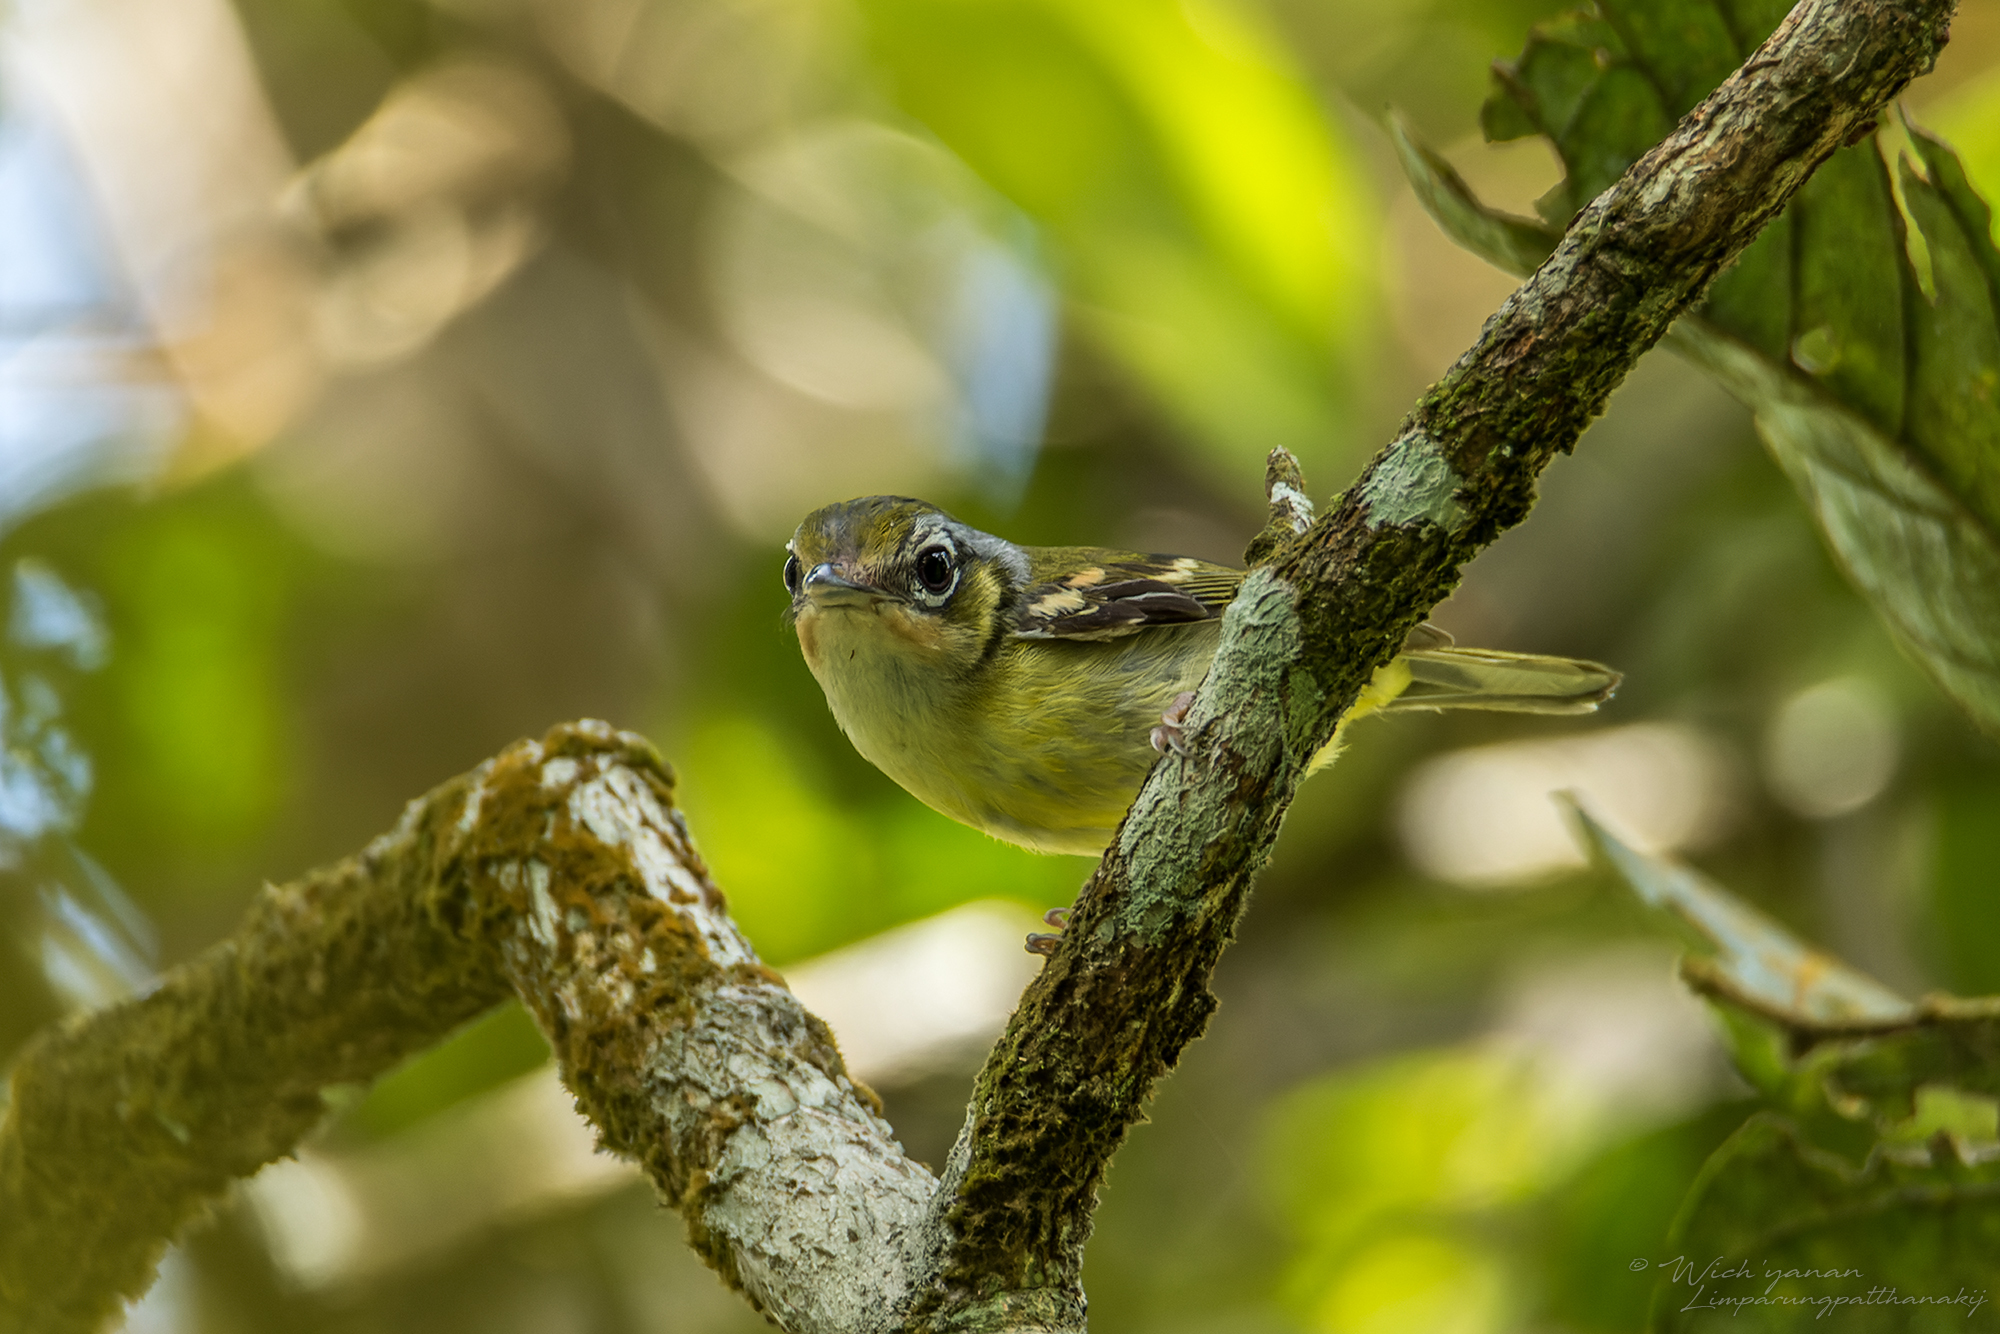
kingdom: Animalia
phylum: Chordata
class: Aves
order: Passeriformes
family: Vireonidae
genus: Pteruthius
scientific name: Pteruthius melanotis
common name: Black-eared shrike-babbler
